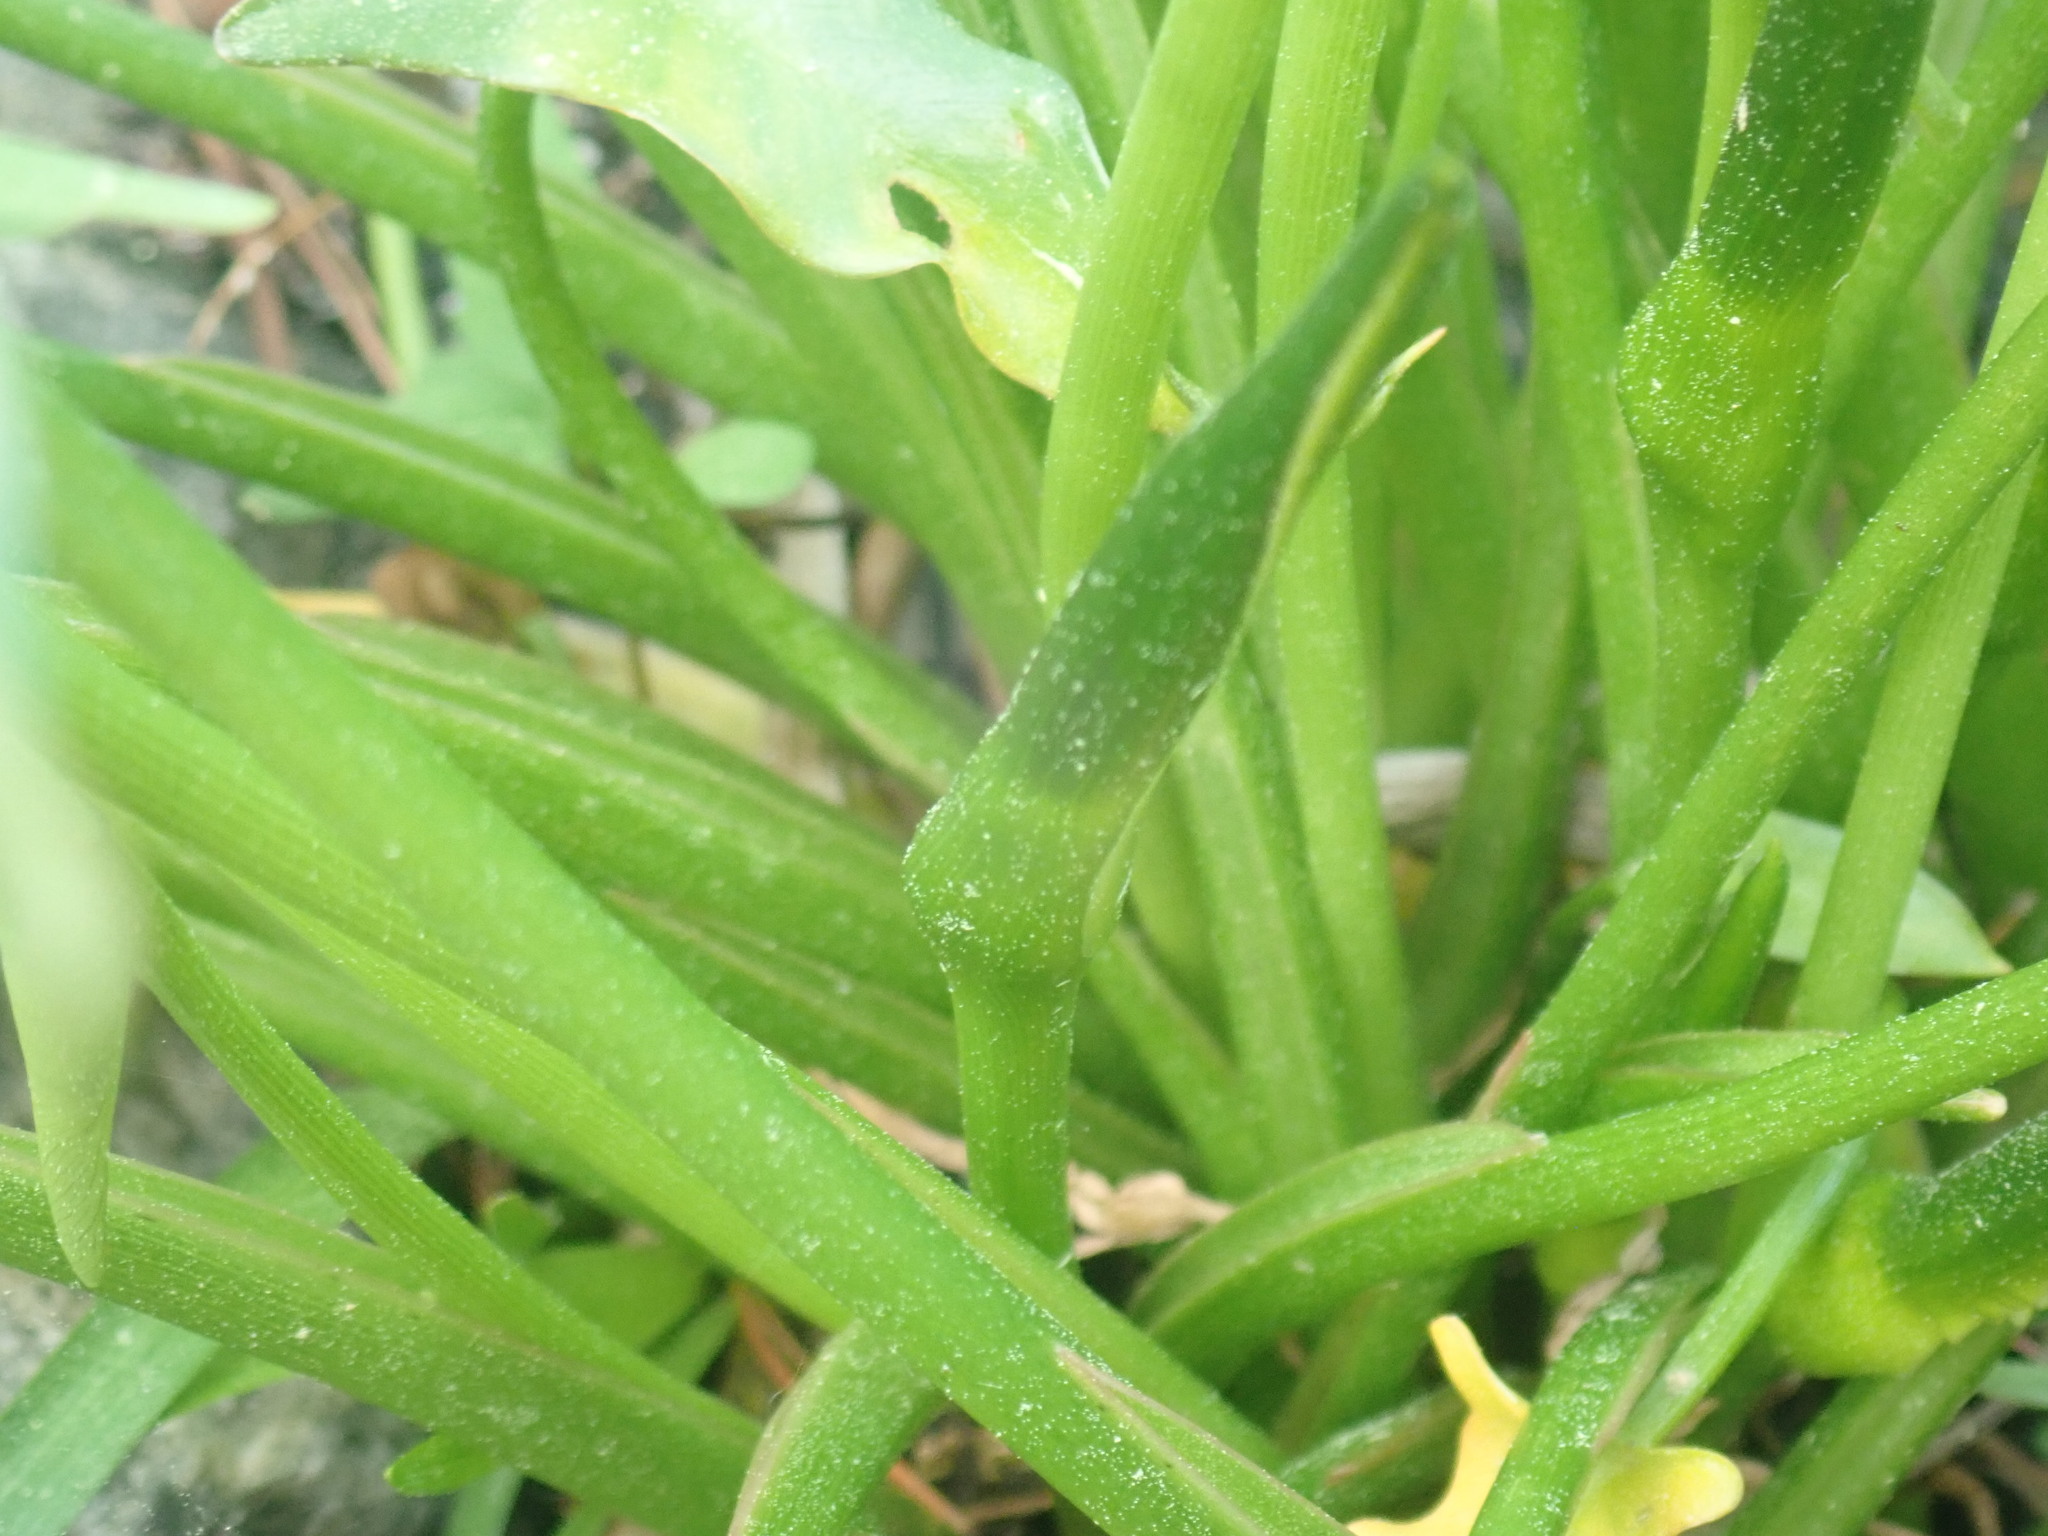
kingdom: Plantae
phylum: Tracheophyta
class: Liliopsida
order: Alismatales
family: Araceae
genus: Peltandra
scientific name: Peltandra virginica
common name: Arrow arum
